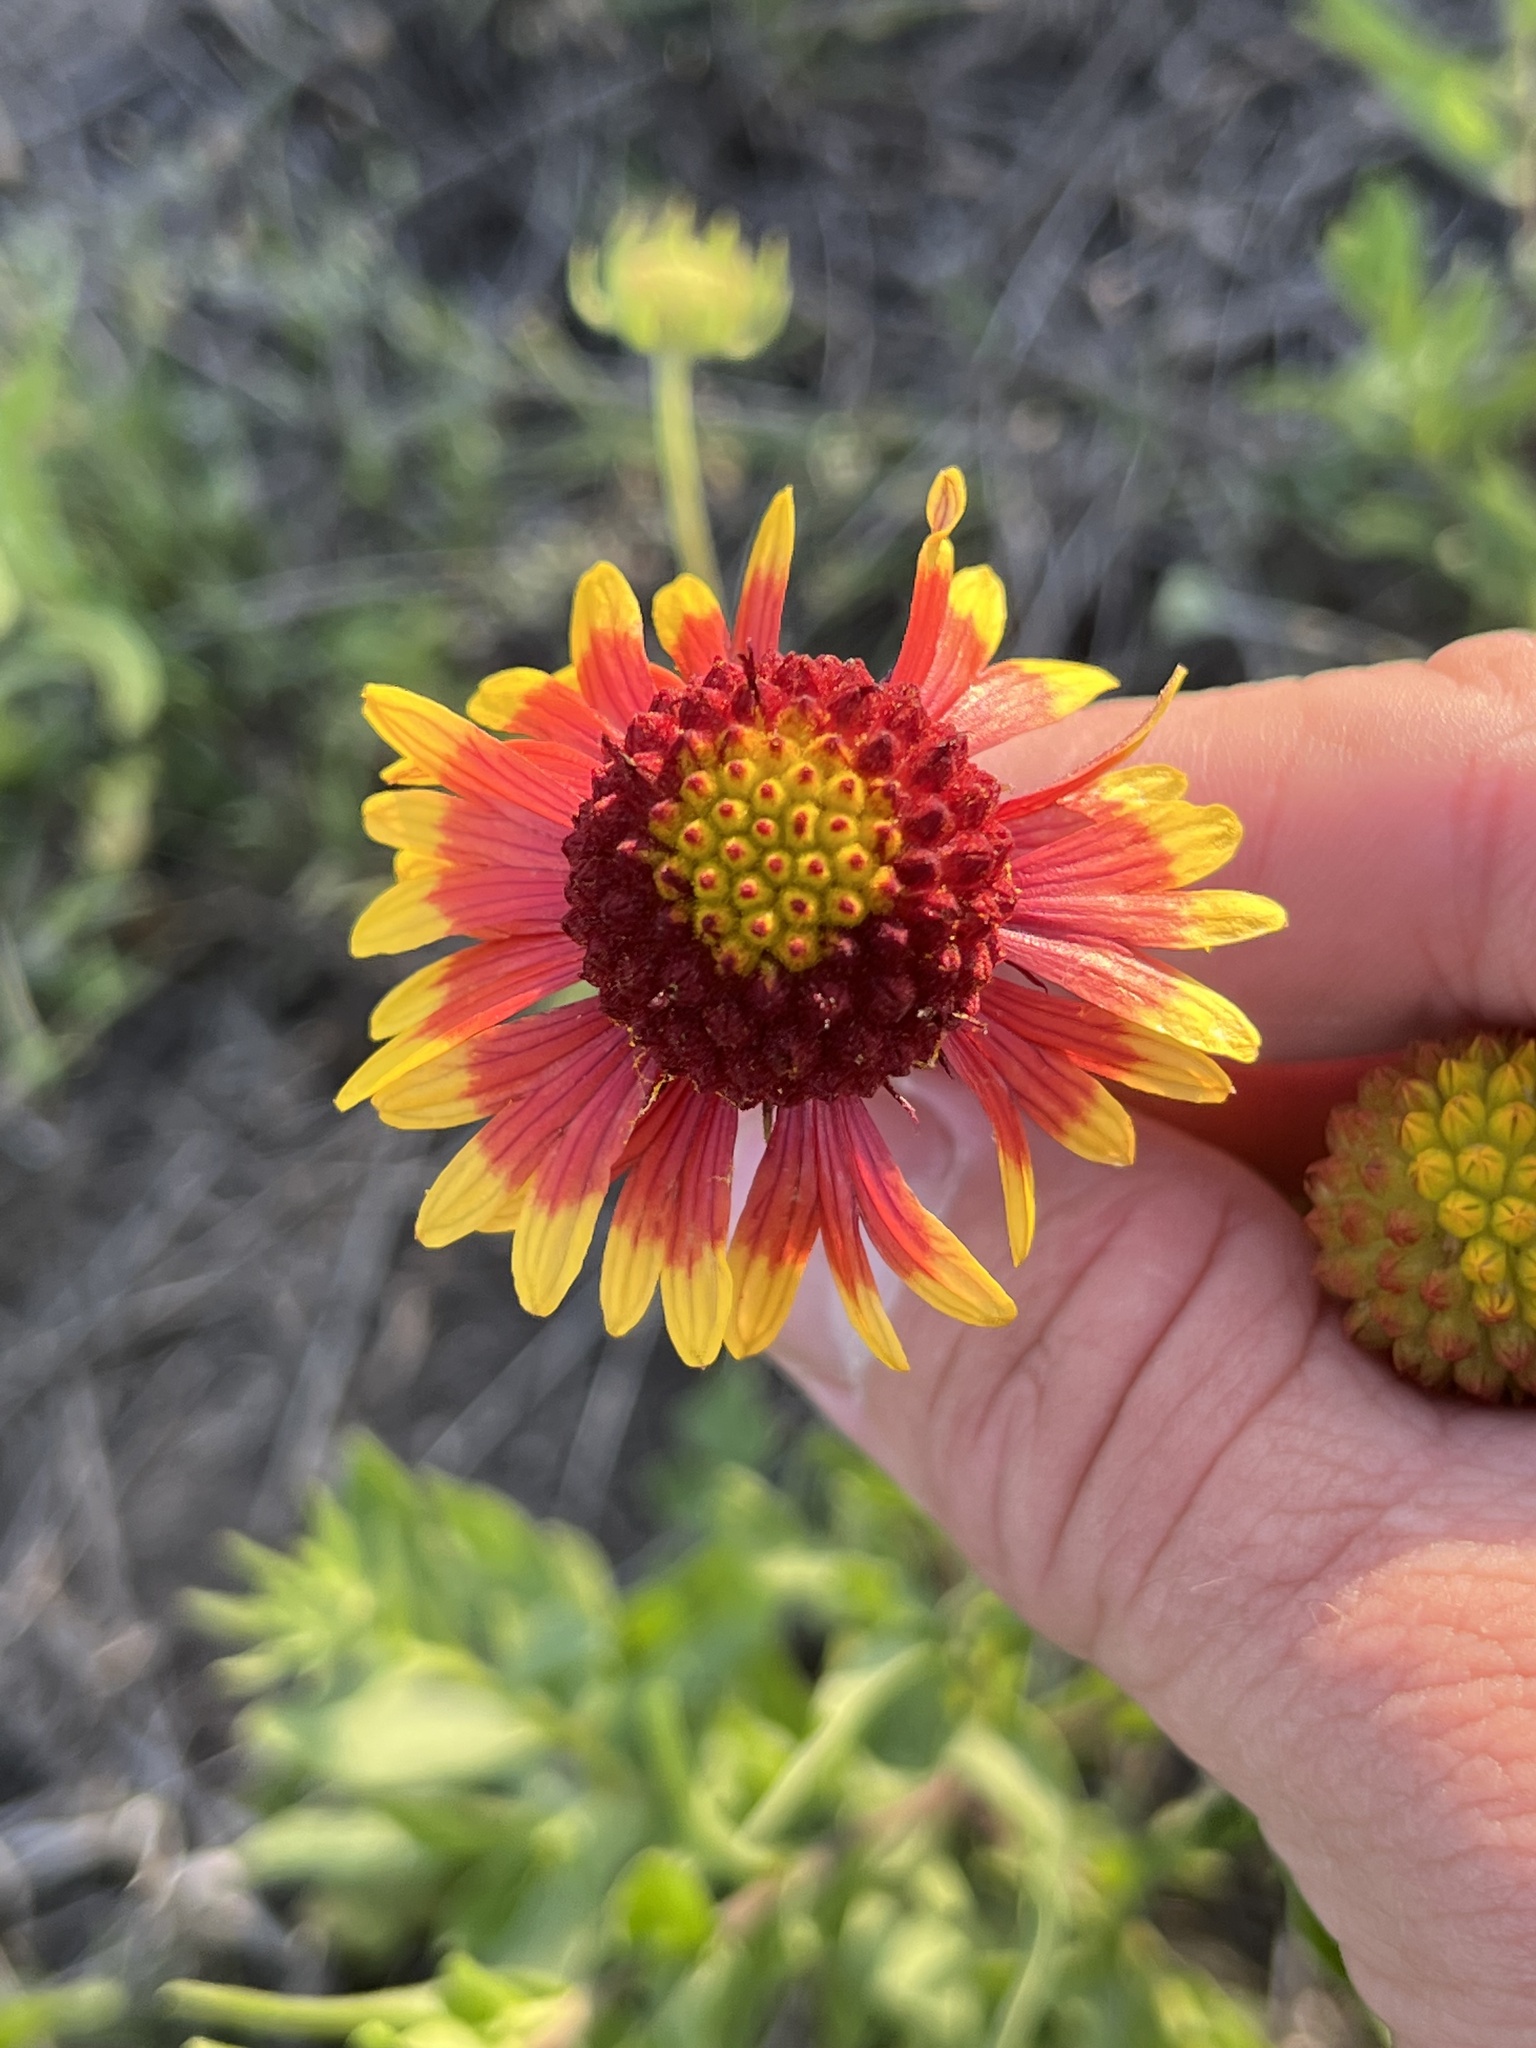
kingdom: Plantae
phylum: Tracheophyta
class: Magnoliopsida
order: Asterales
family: Asteraceae
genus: Gaillardia
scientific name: Gaillardia pulchella
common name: Firewheel
